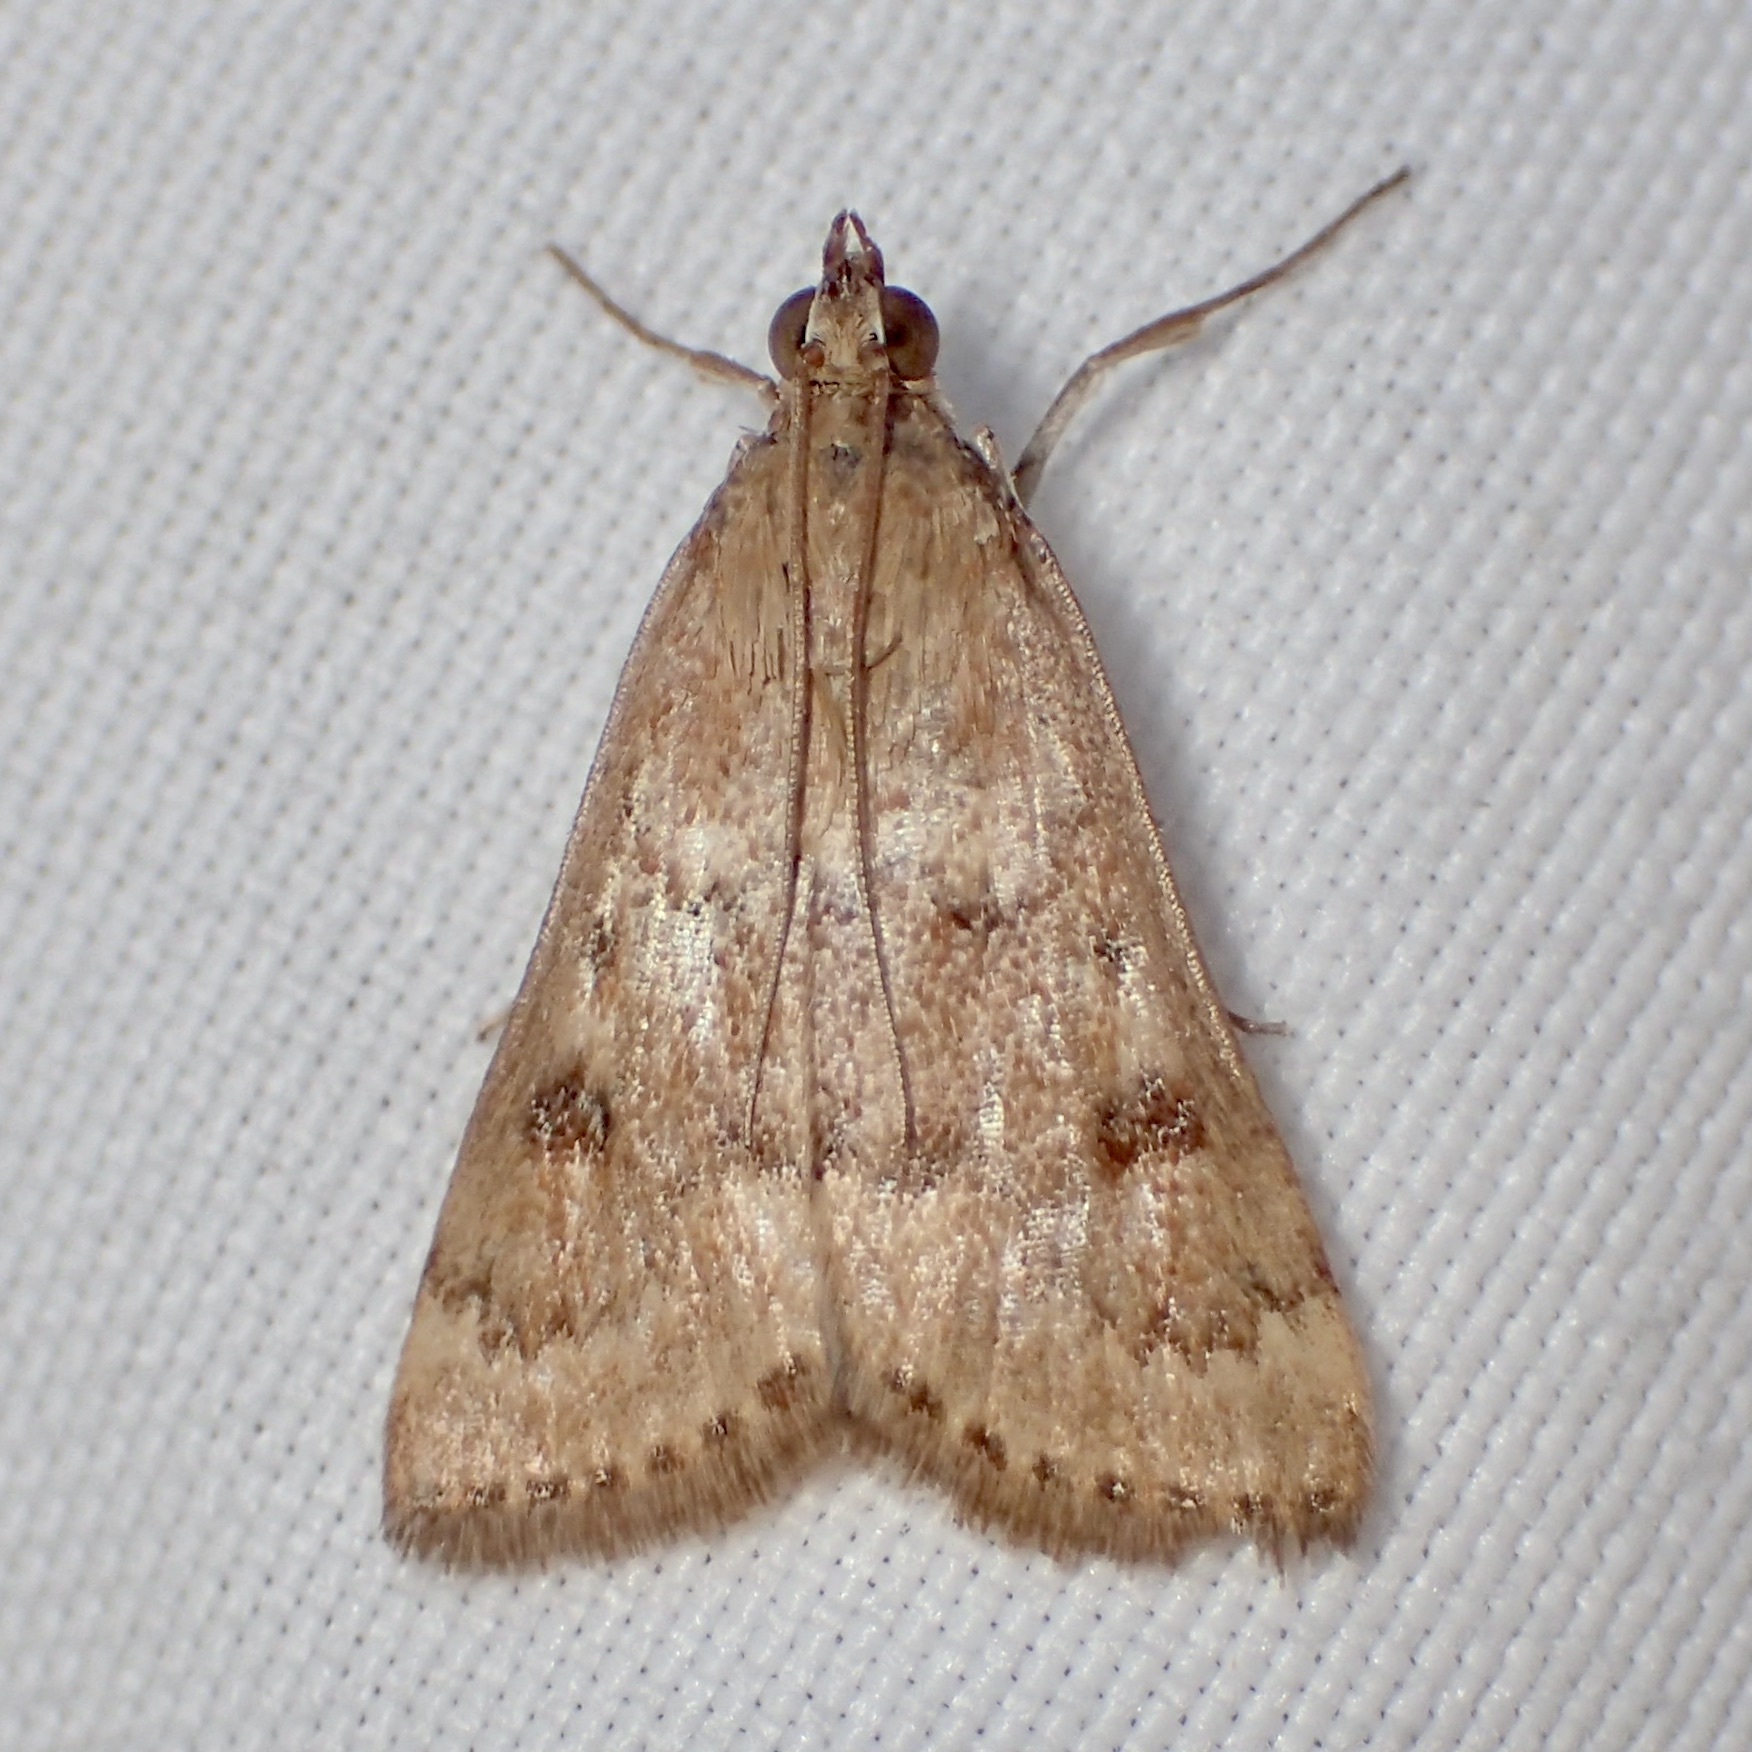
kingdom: Animalia
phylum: Arthropoda
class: Insecta
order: Lepidoptera
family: Crambidae
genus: Achyra
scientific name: Achyra rantalis
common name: Garden webworm
